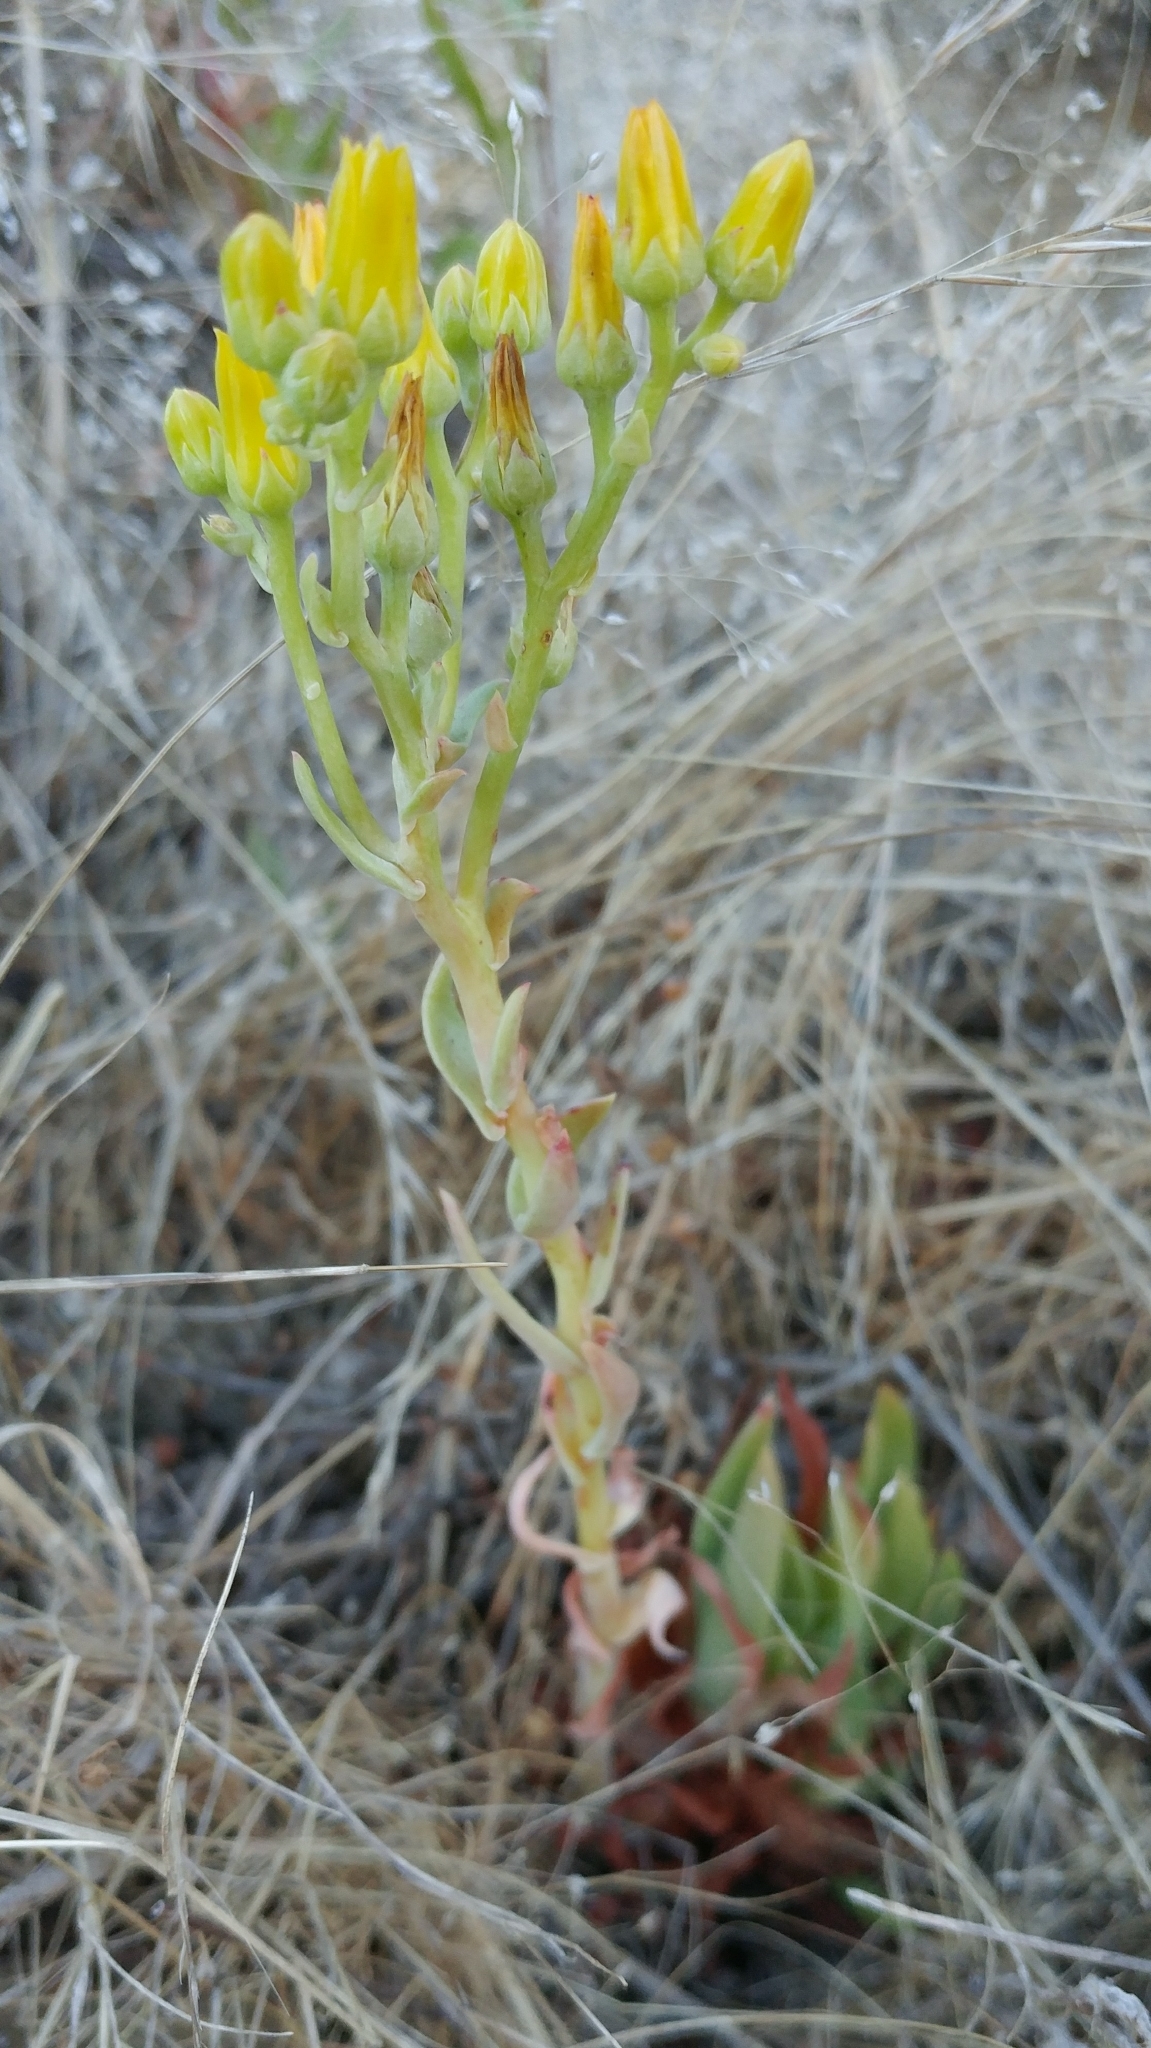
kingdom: Plantae
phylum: Tracheophyta
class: Magnoliopsida
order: Saxifragales
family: Crassulaceae
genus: Dudleya
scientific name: Dudleya caespitosa
